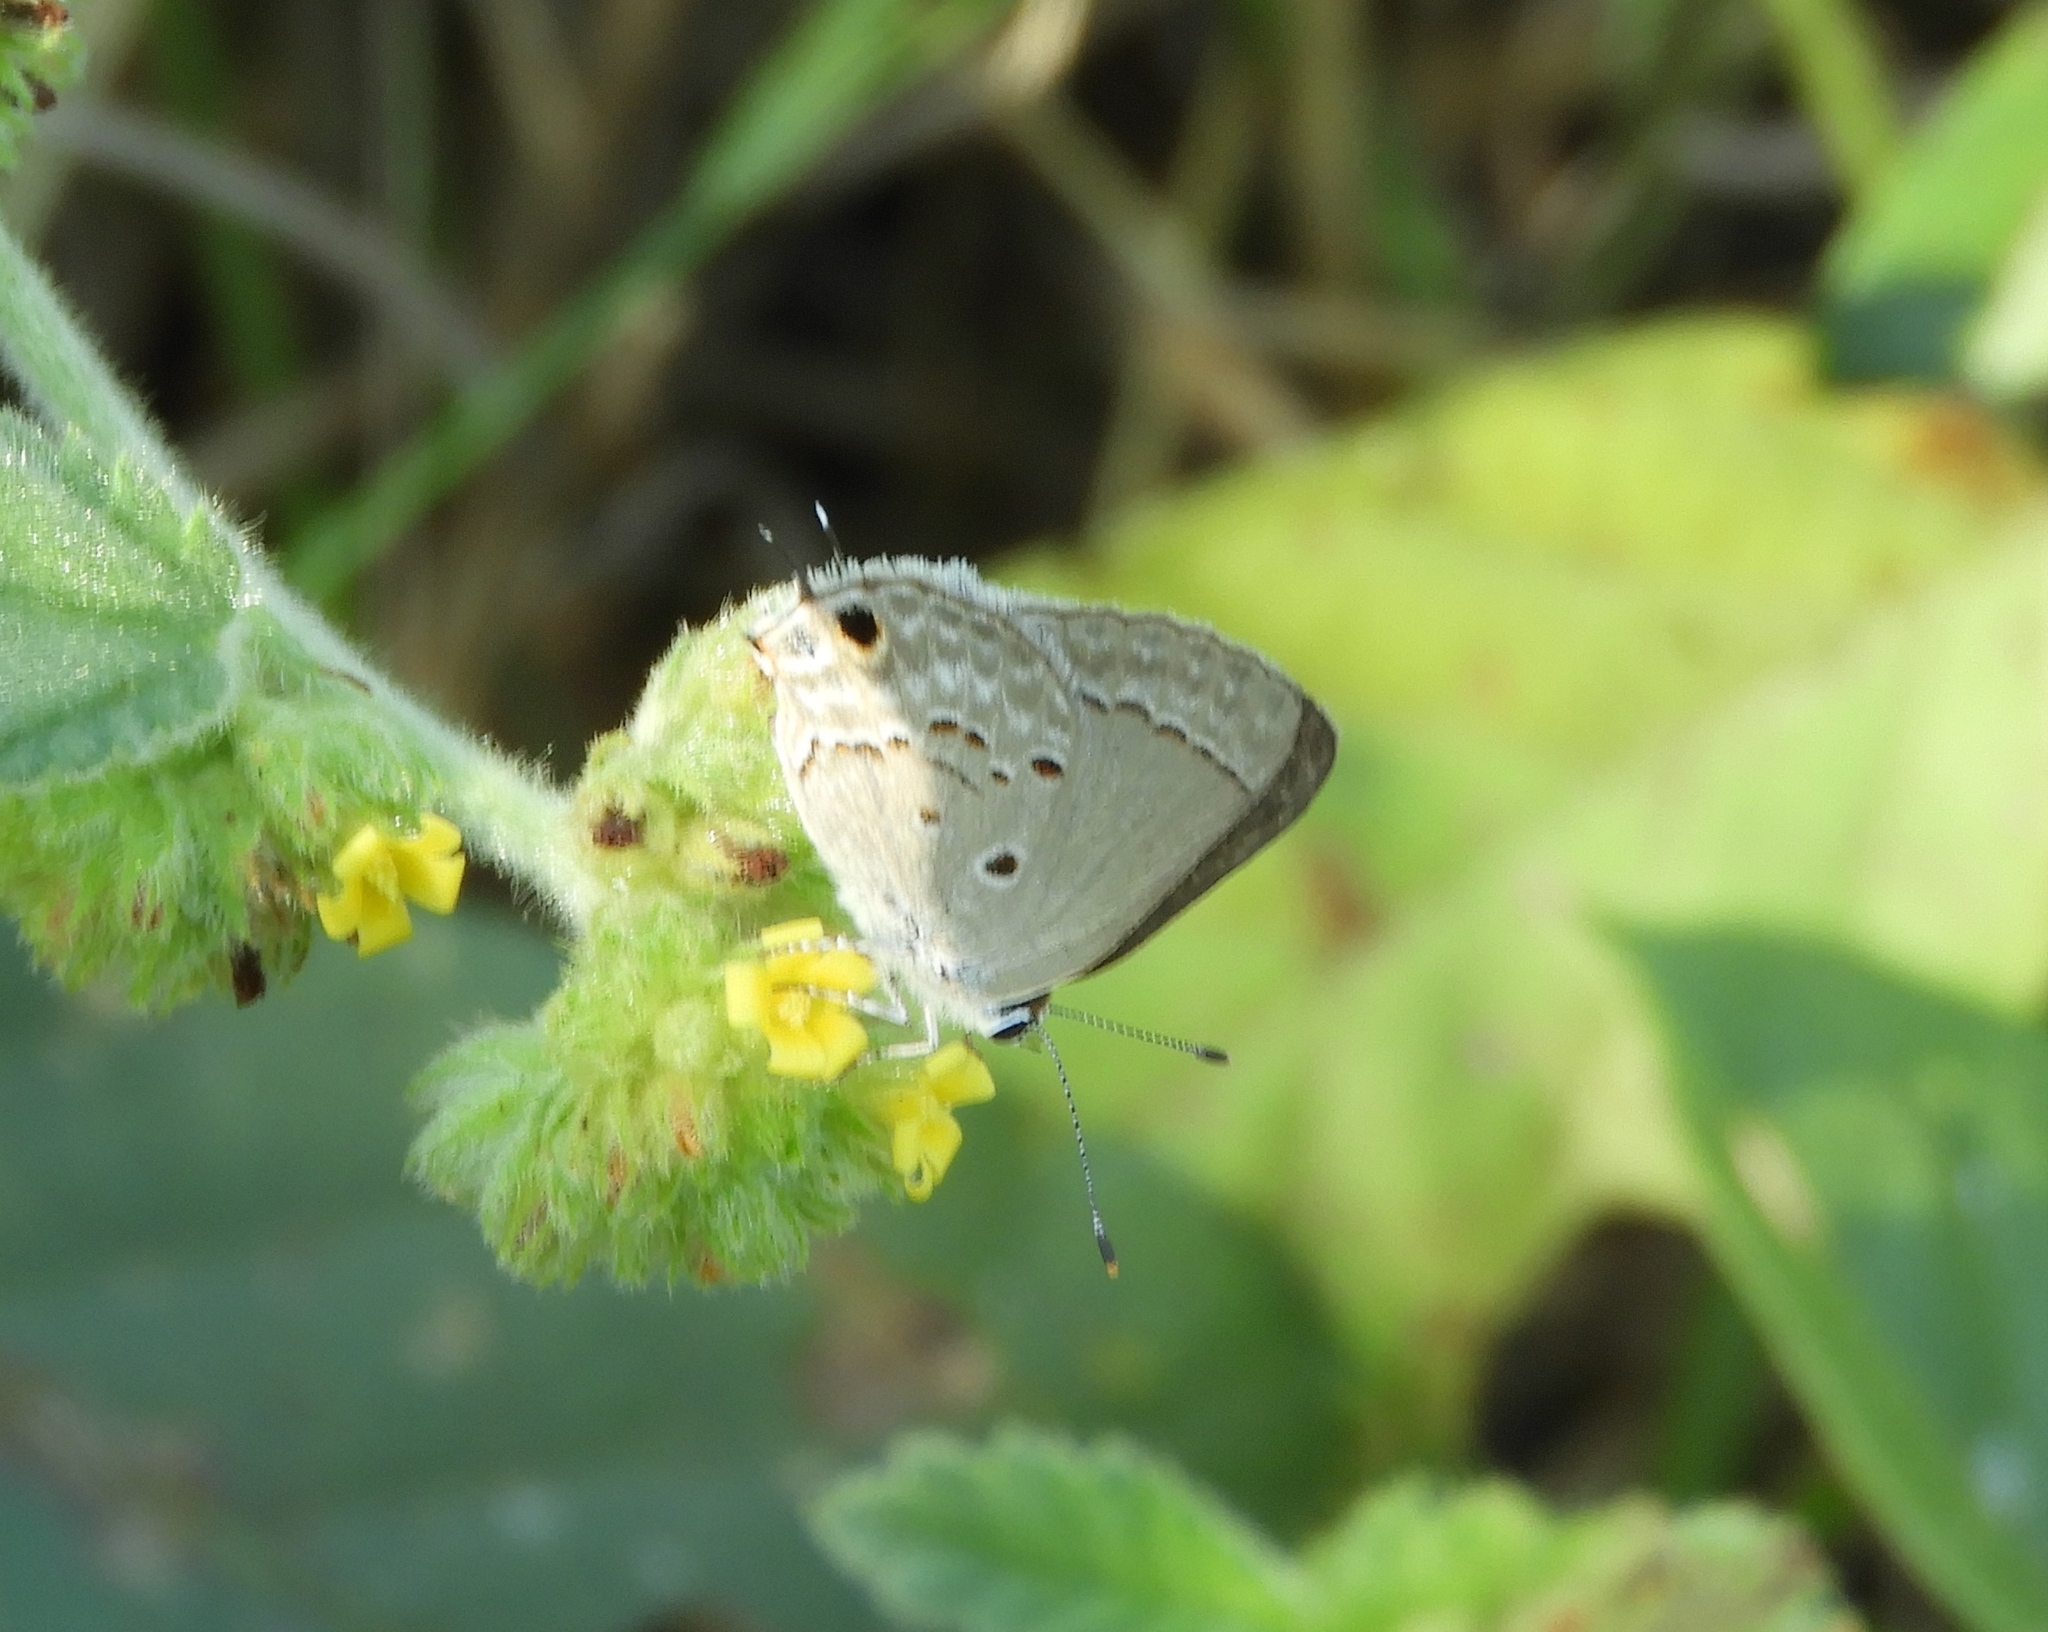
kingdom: Animalia
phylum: Arthropoda
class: Insecta
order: Lepidoptera
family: Lycaenidae
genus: Callicista
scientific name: Callicista columella
